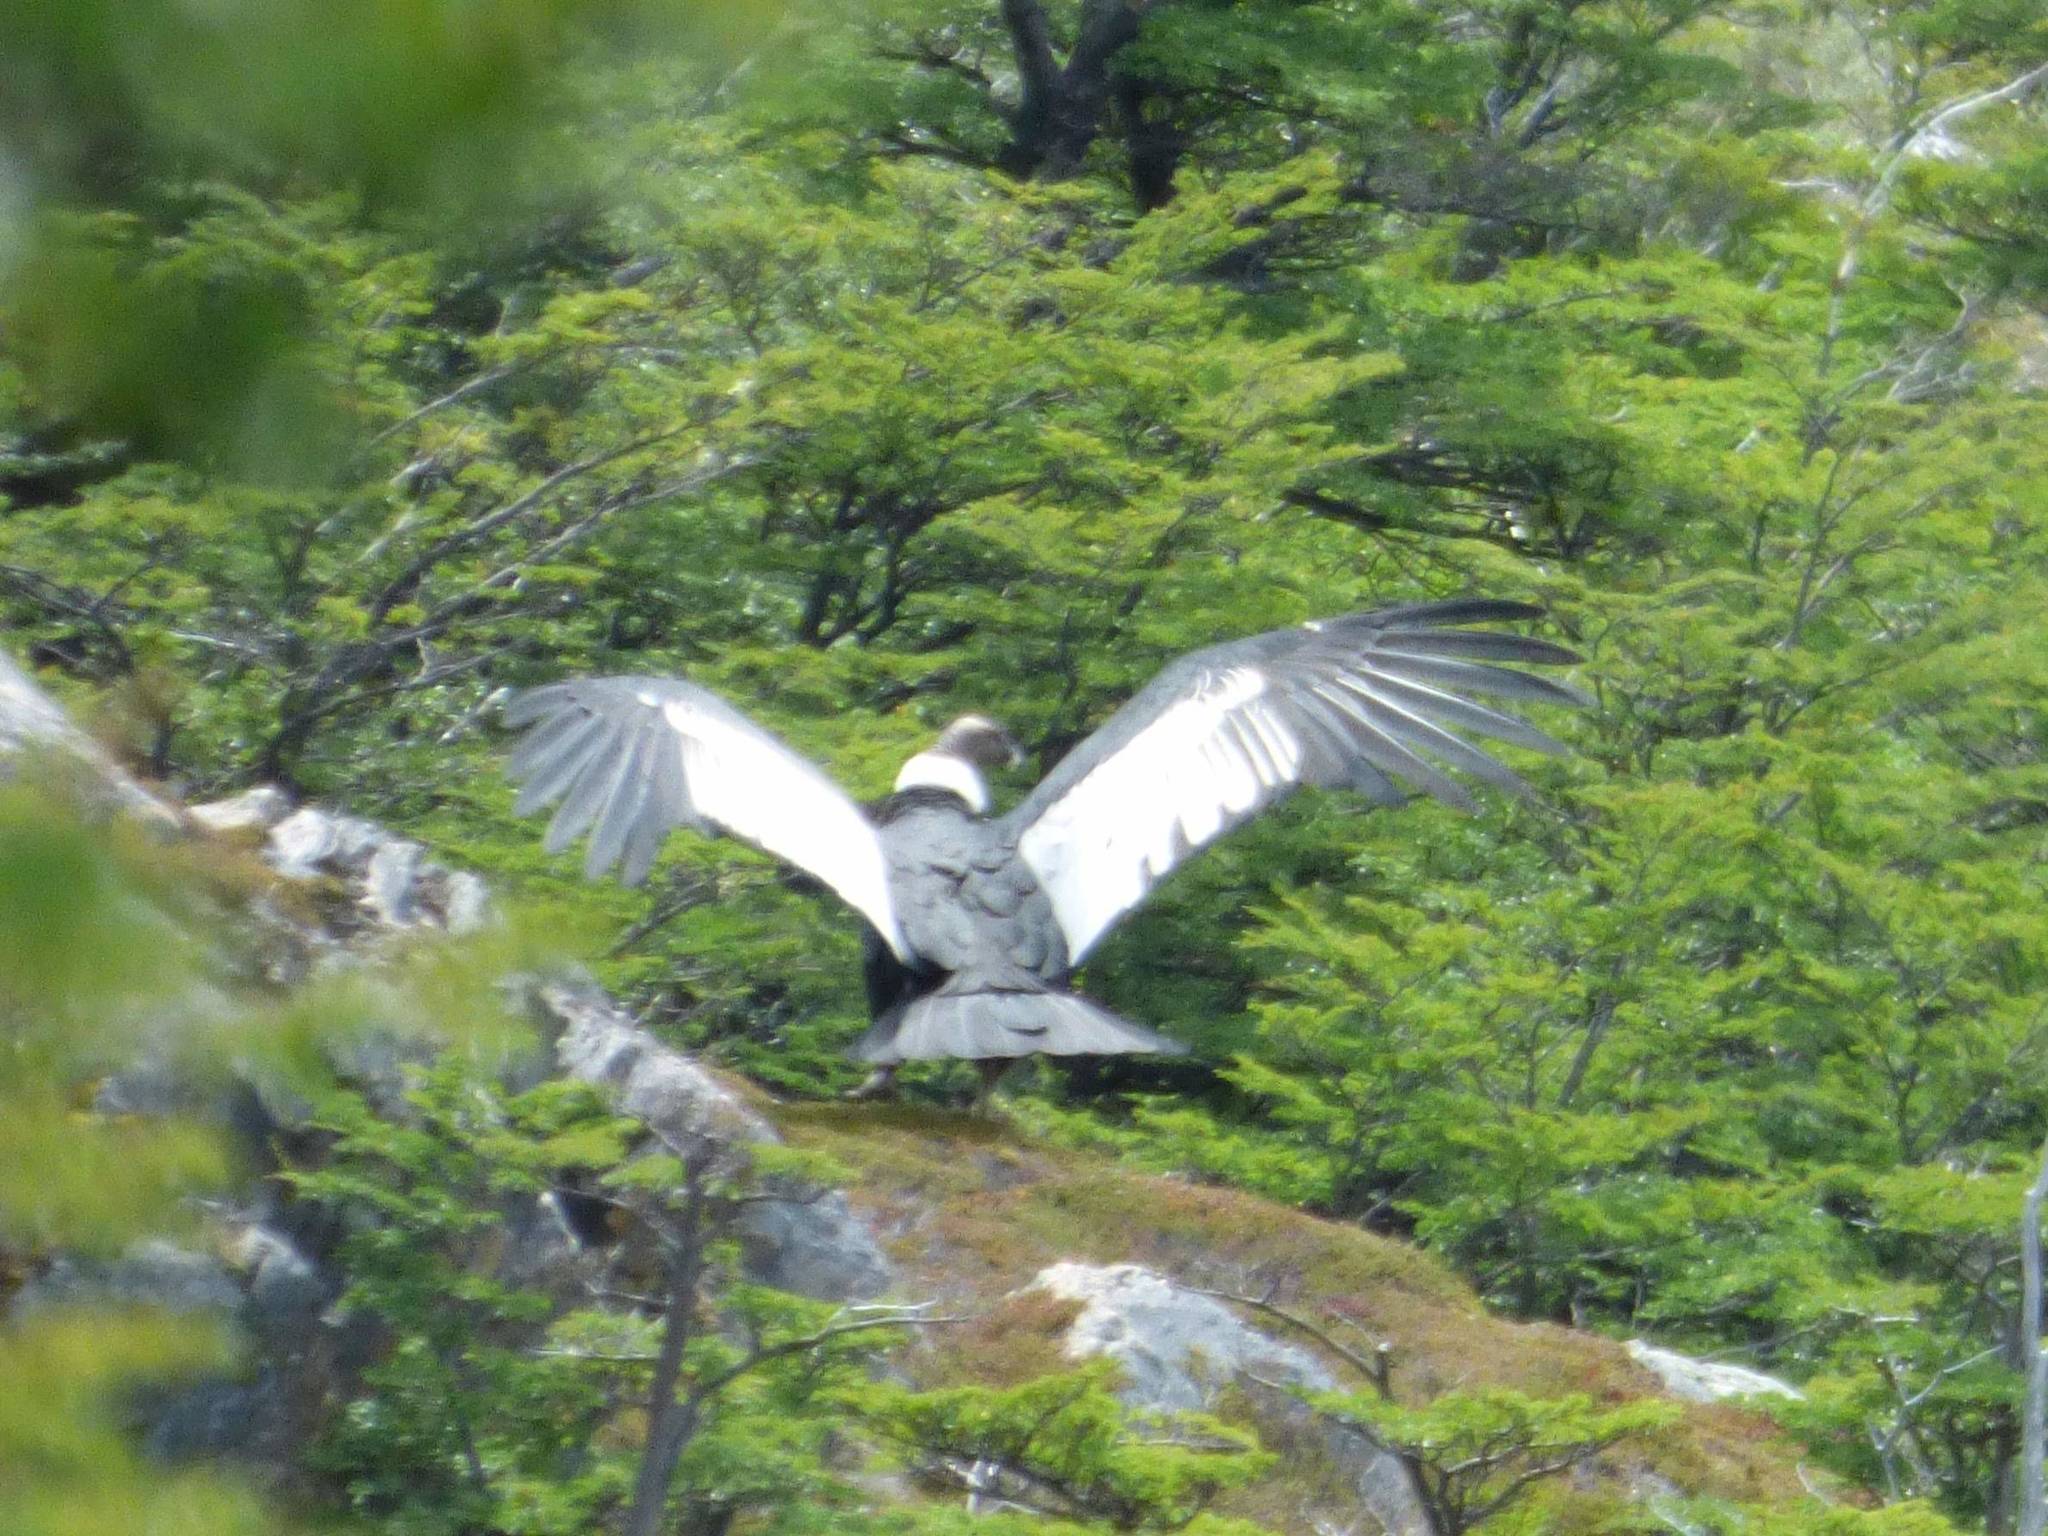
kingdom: Animalia
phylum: Chordata
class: Aves
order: Accipitriformes
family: Cathartidae
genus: Vultur
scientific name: Vultur gryphus
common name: Andean condor
